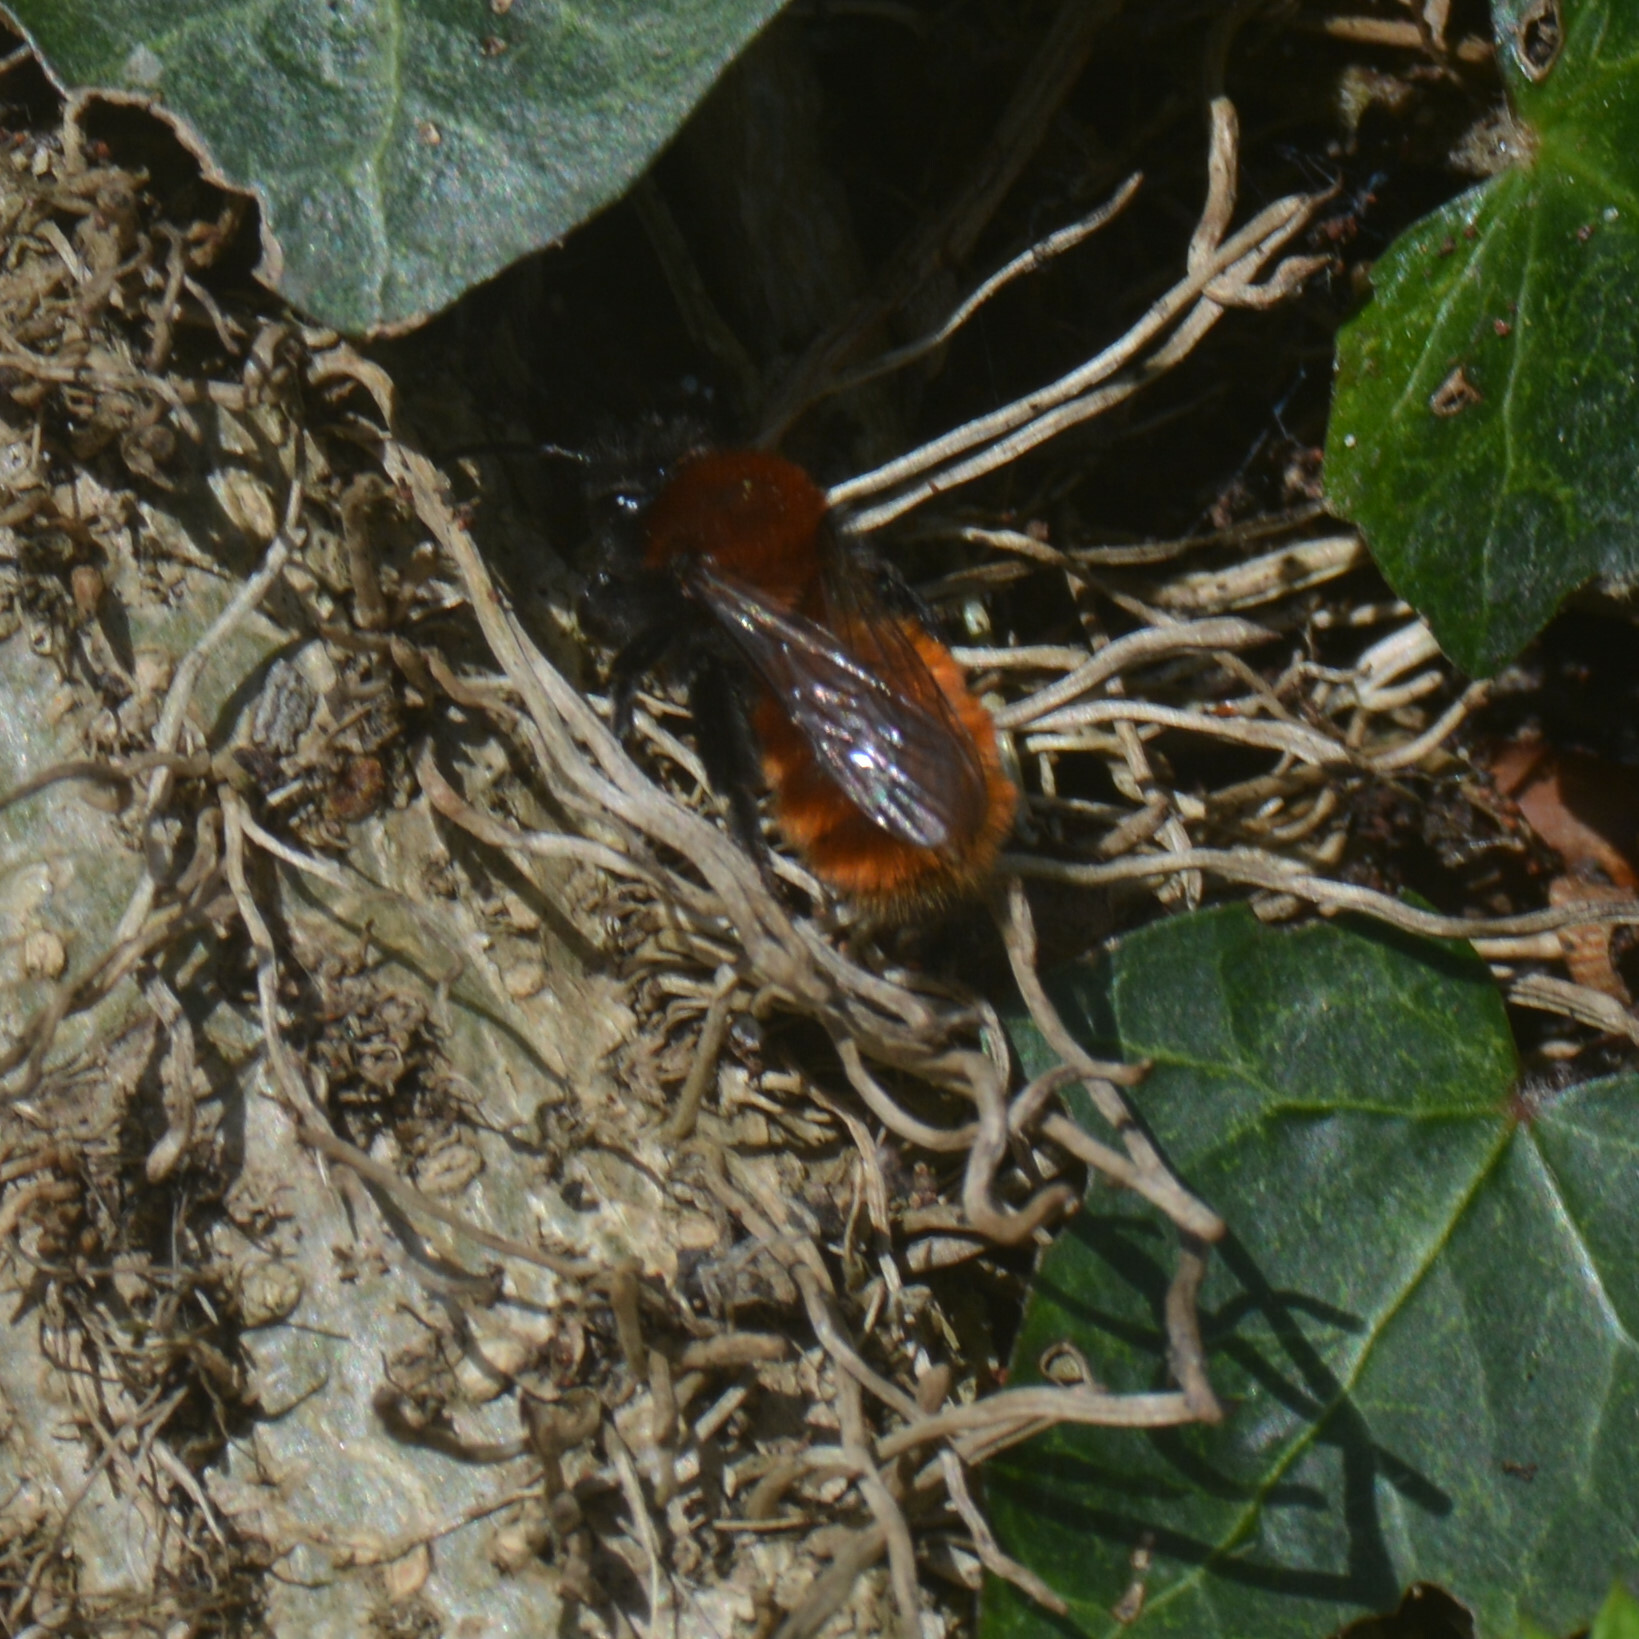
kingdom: Animalia
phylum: Arthropoda
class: Insecta
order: Hymenoptera
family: Andrenidae
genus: Andrena
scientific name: Andrena fulva
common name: Tawny mining bee
